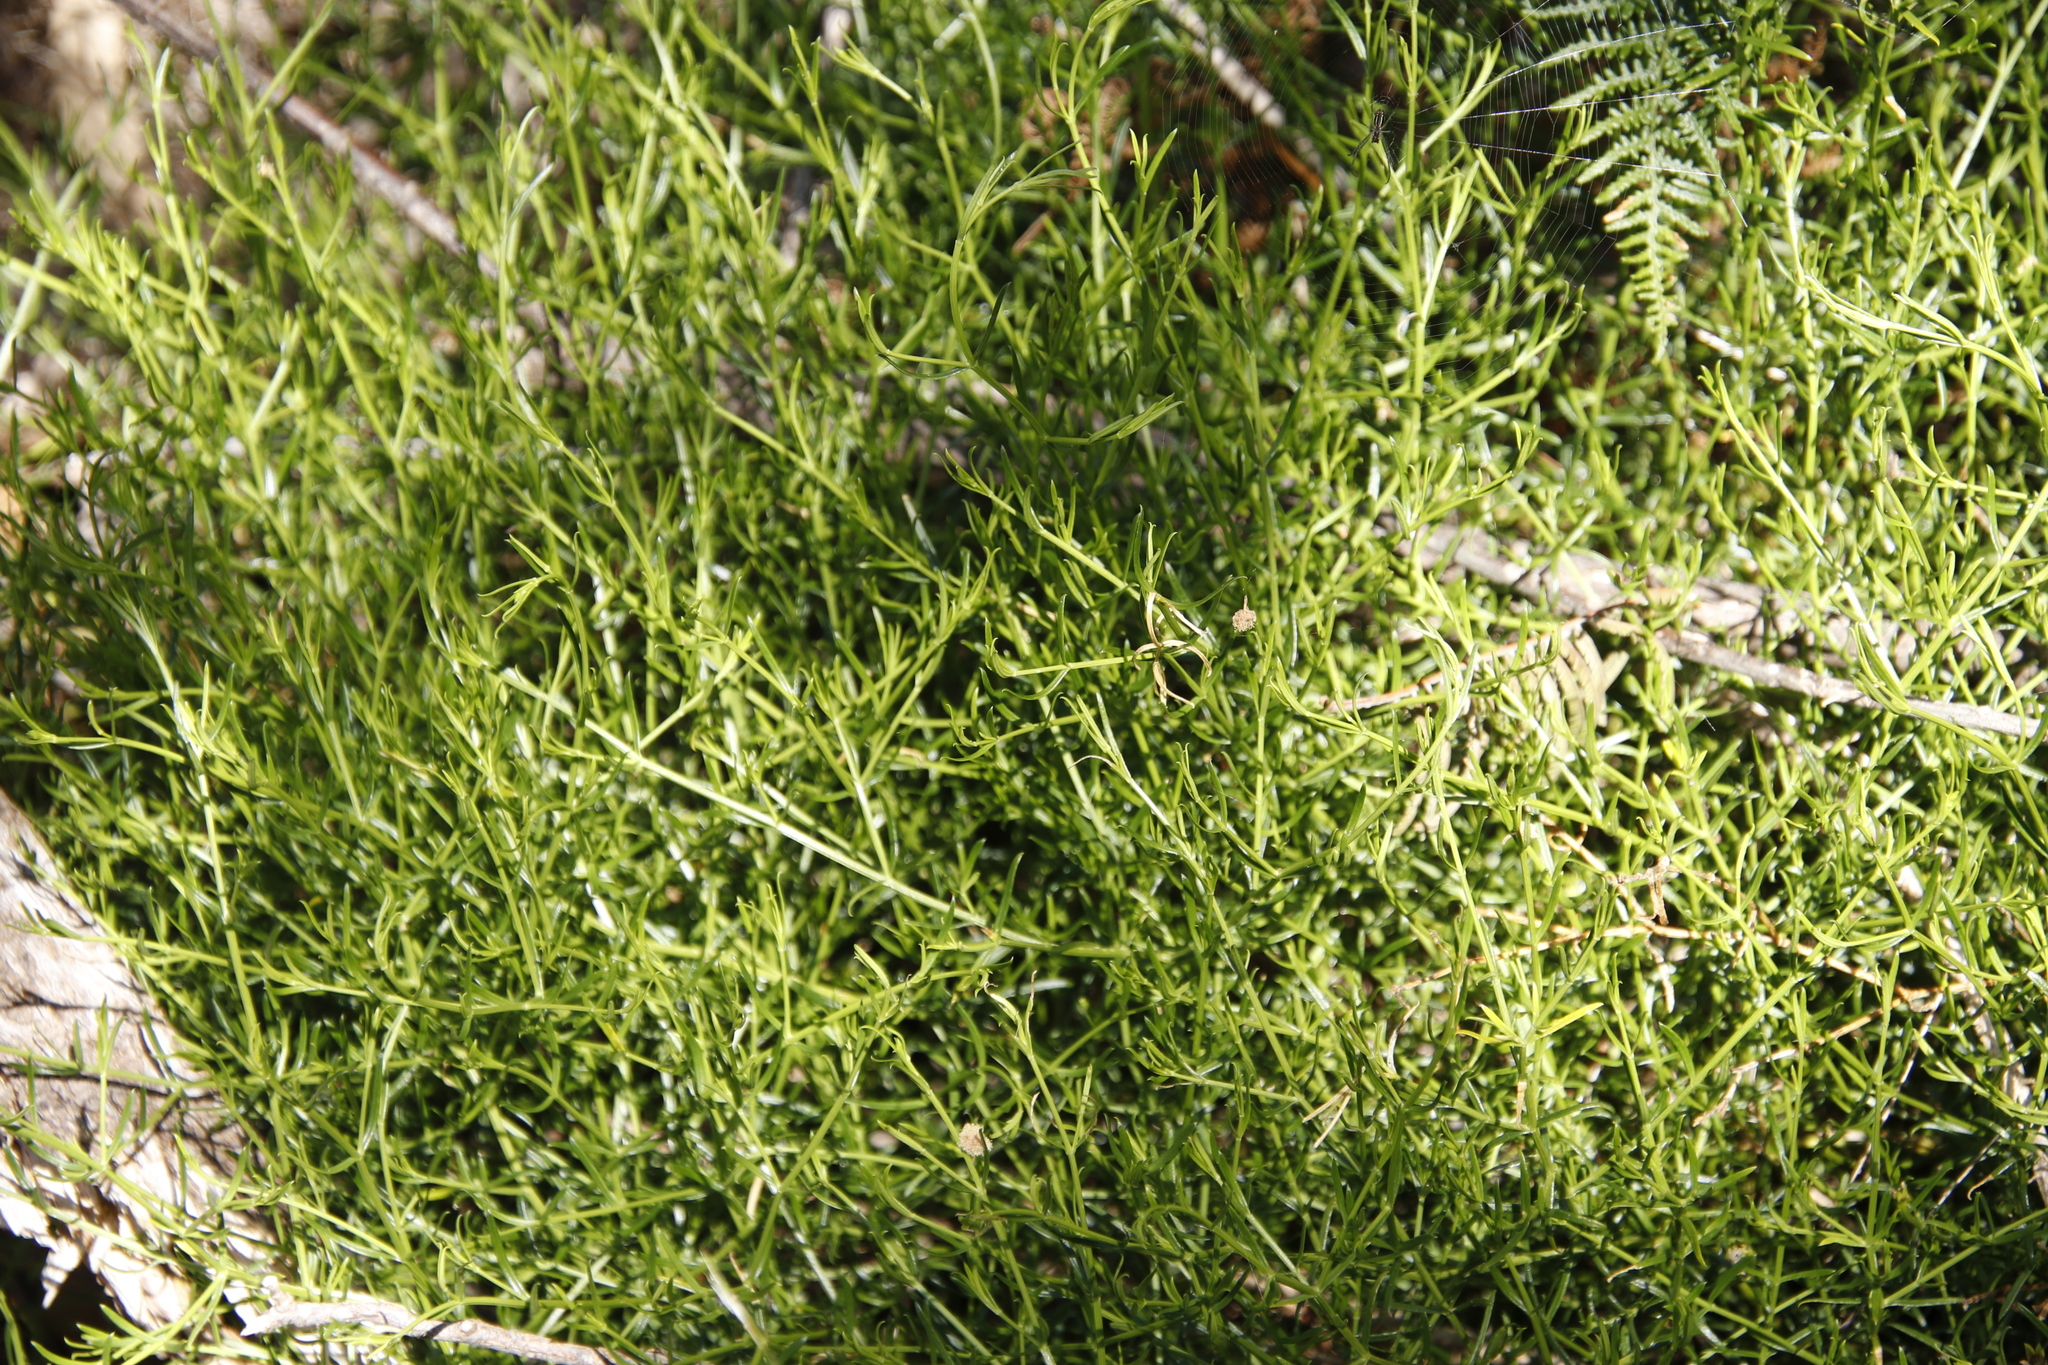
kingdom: Plantae
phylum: Tracheophyta
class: Magnoliopsida
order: Gentianales
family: Gentianaceae
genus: Chironia
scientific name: Chironia baccifera
